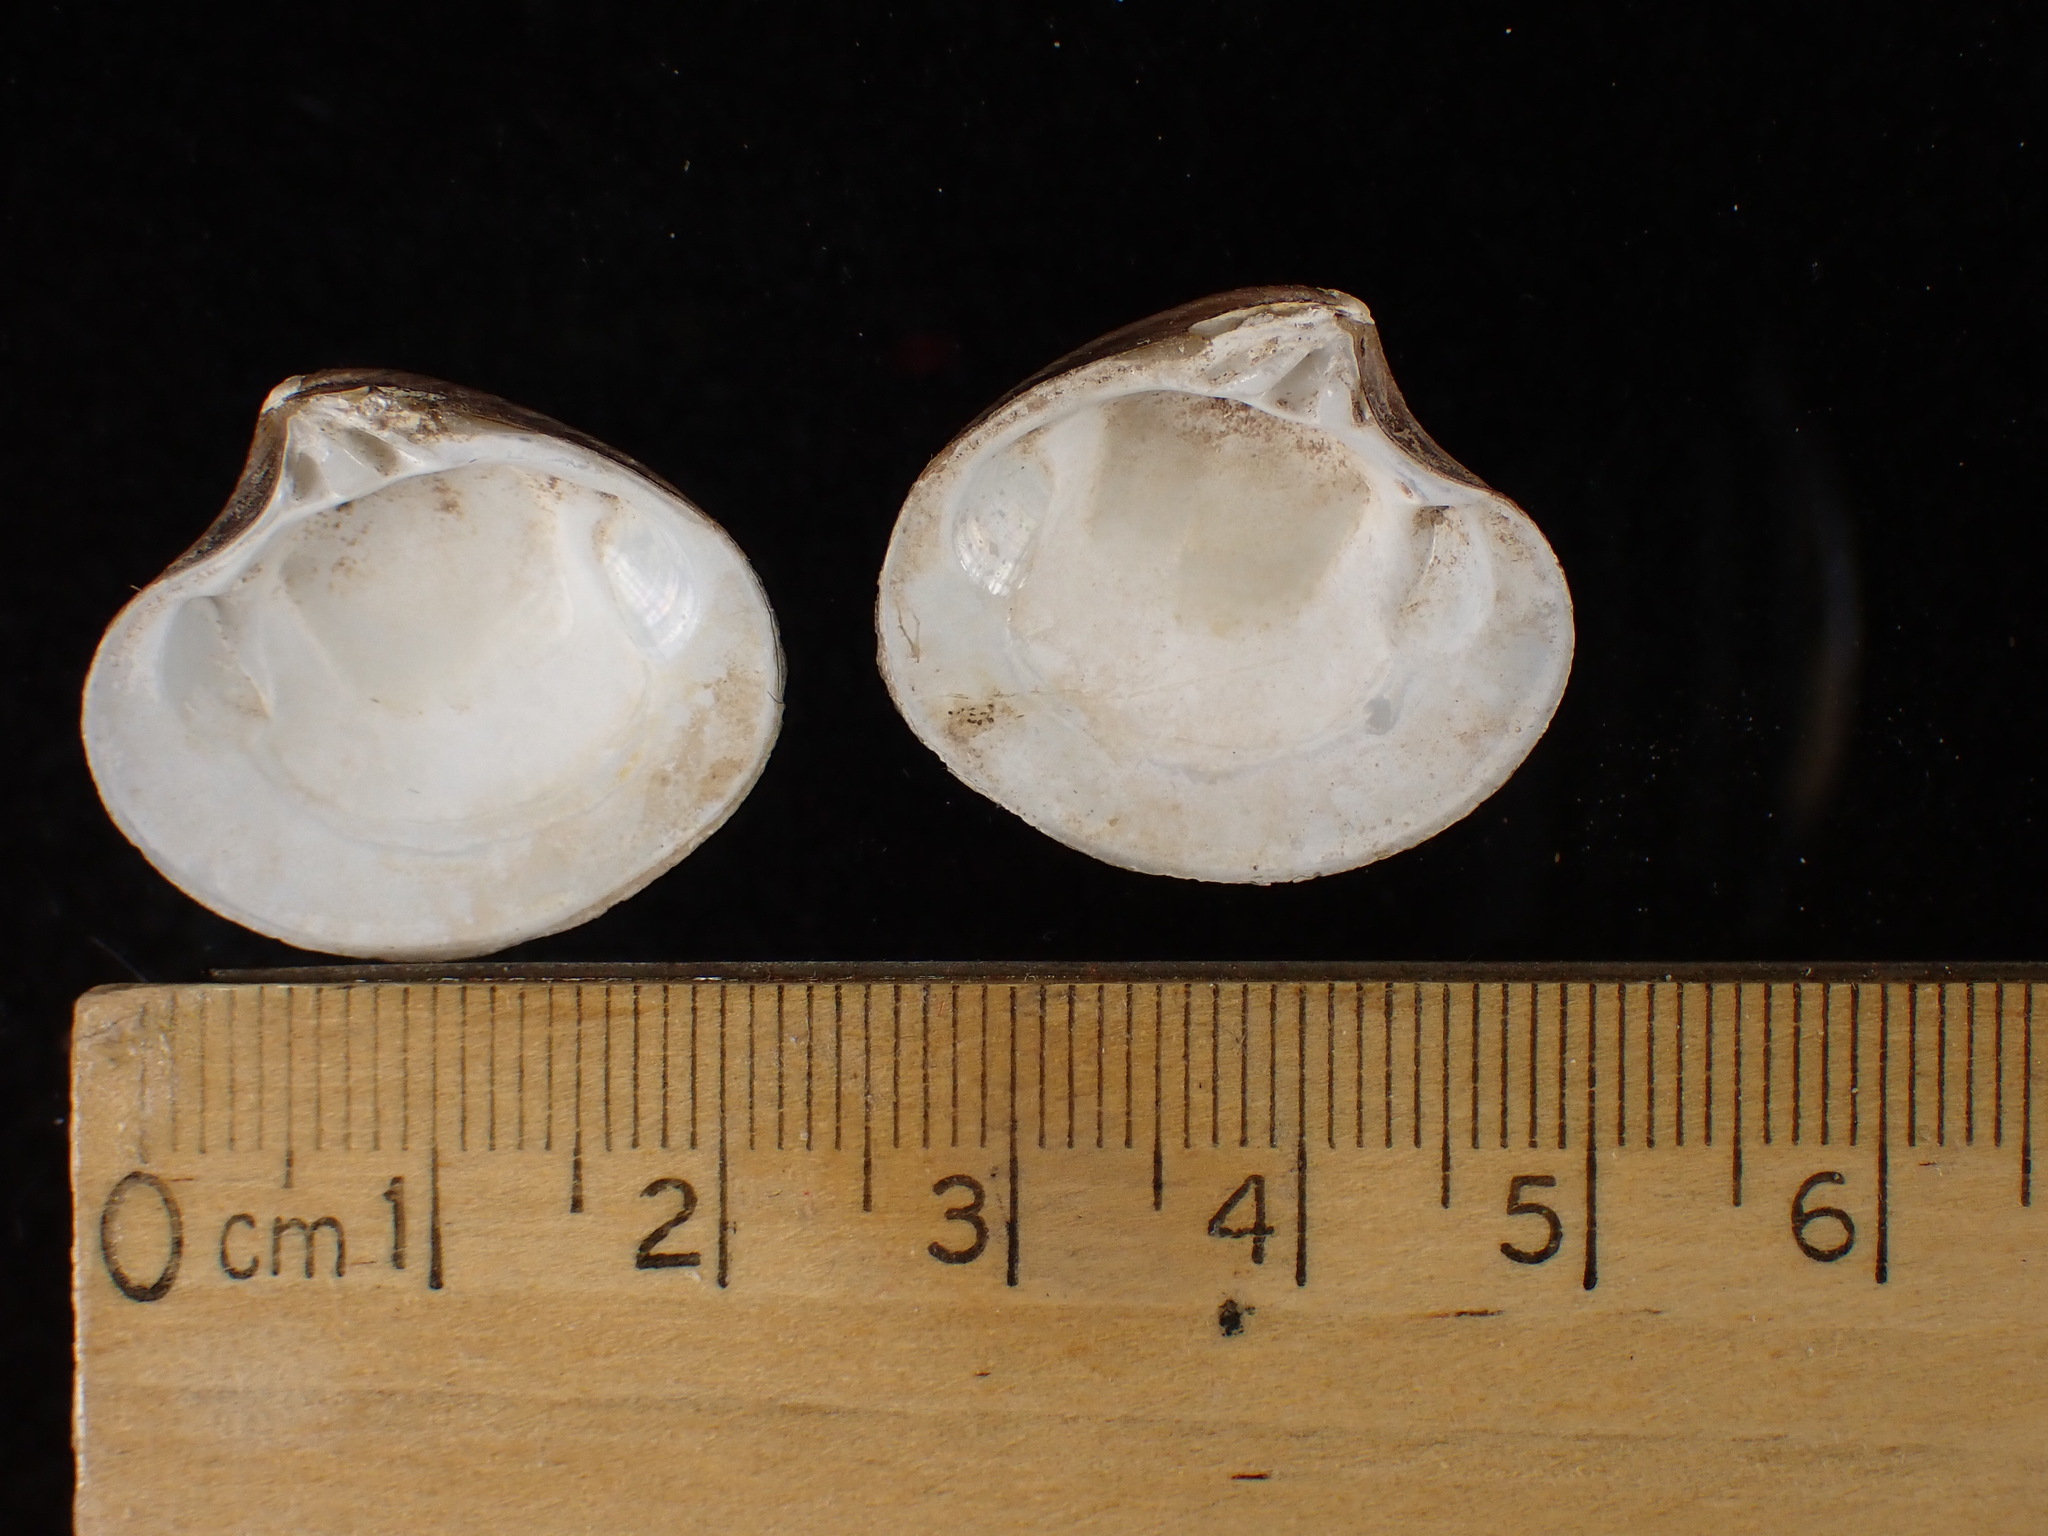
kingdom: Animalia
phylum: Mollusca
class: Bivalvia
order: Carditida
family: Astartidae
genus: Astarte
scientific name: Astarte undata
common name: Wavy astarte
